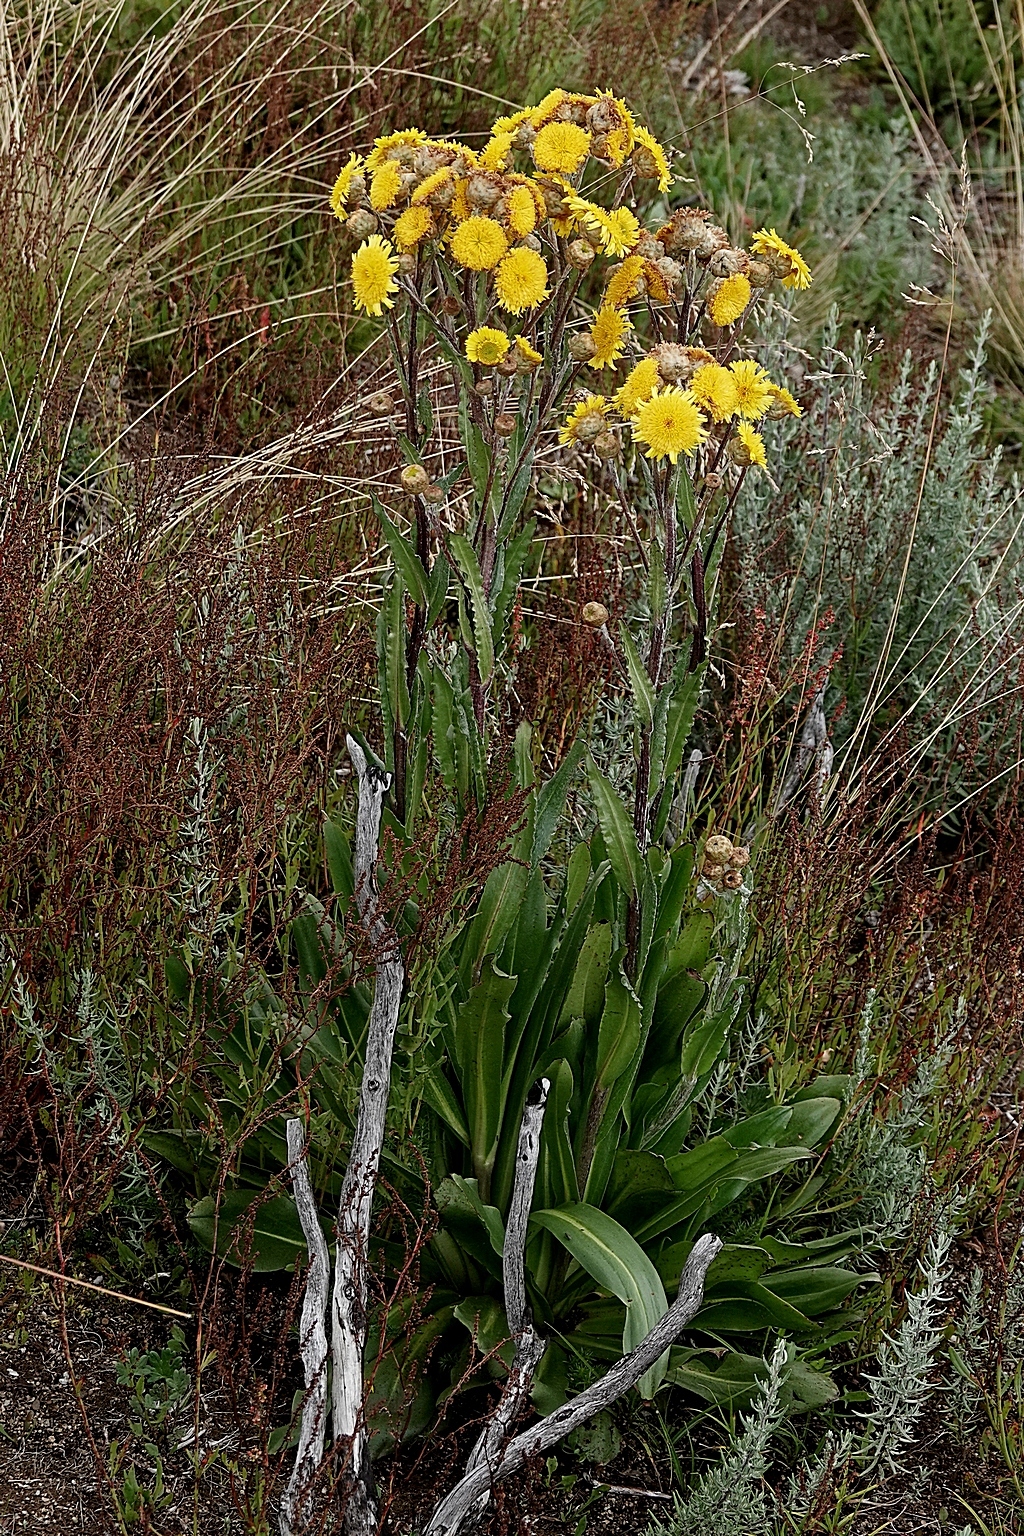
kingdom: Plantae
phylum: Tracheophyta
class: Magnoliopsida
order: Asterales
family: Asteraceae
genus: Podolepis
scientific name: Podolepis robusta
